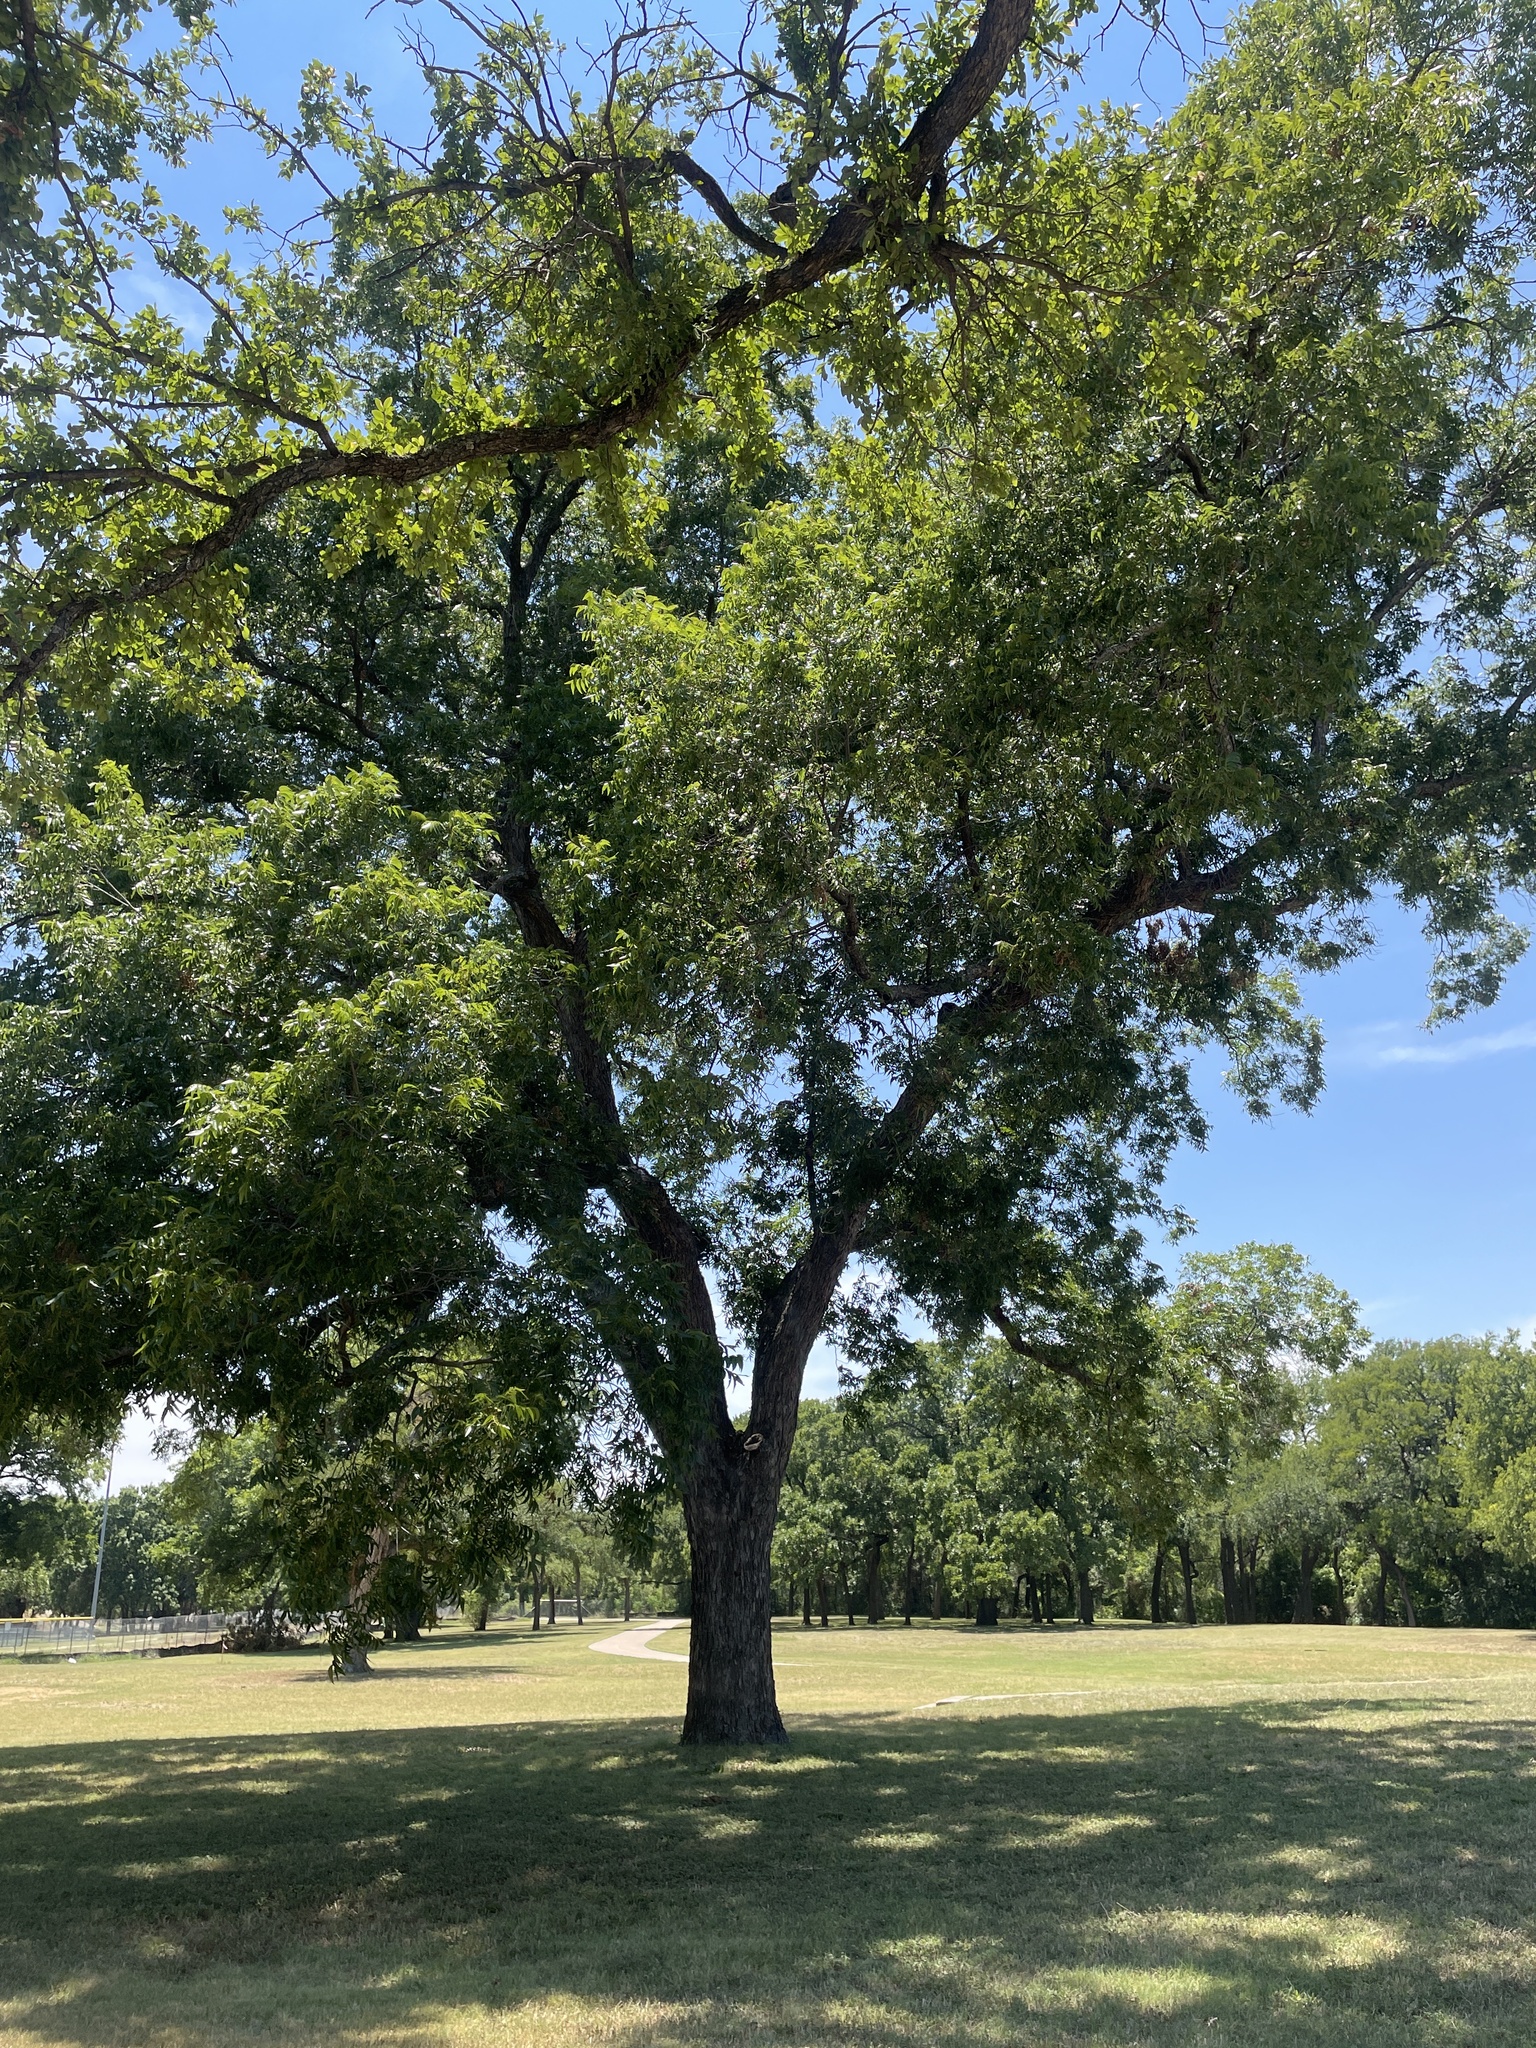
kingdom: Plantae
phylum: Tracheophyta
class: Magnoliopsida
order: Fagales
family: Juglandaceae
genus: Carya
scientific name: Carya illinoinensis
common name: Pecan
